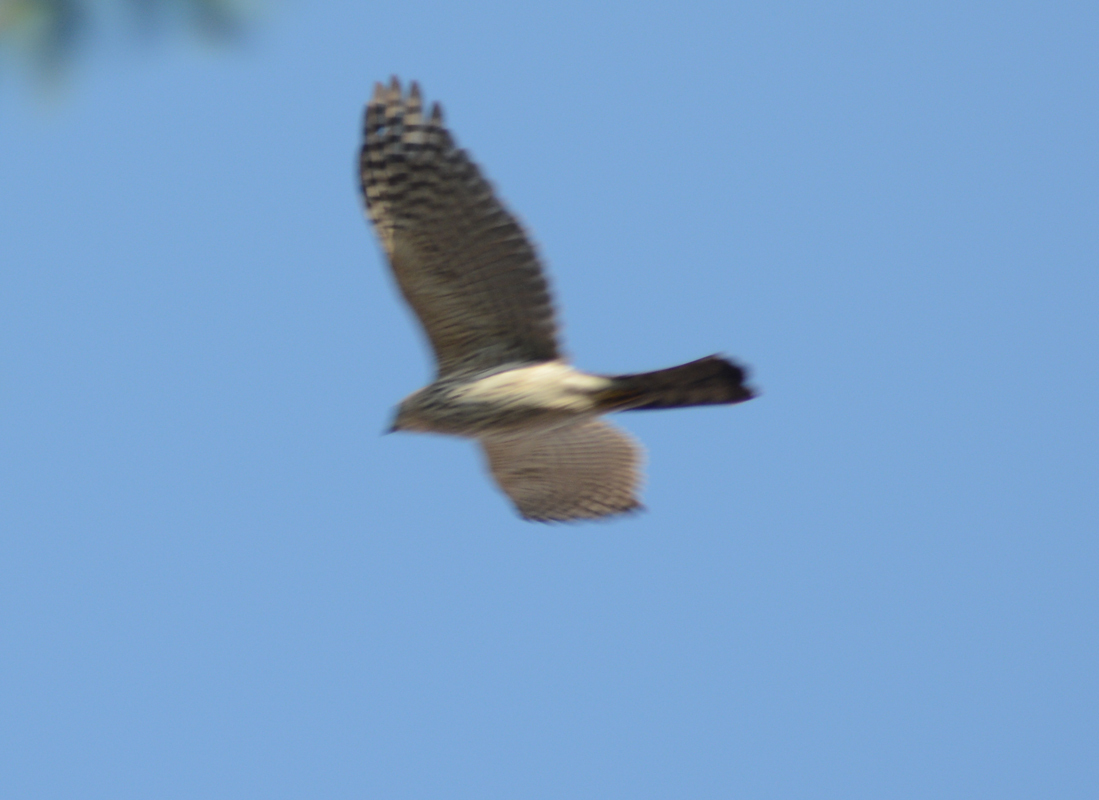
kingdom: Animalia
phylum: Chordata
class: Aves
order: Accipitriformes
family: Accipitridae
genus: Accipiter
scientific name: Accipiter cooperii
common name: Cooper's hawk
